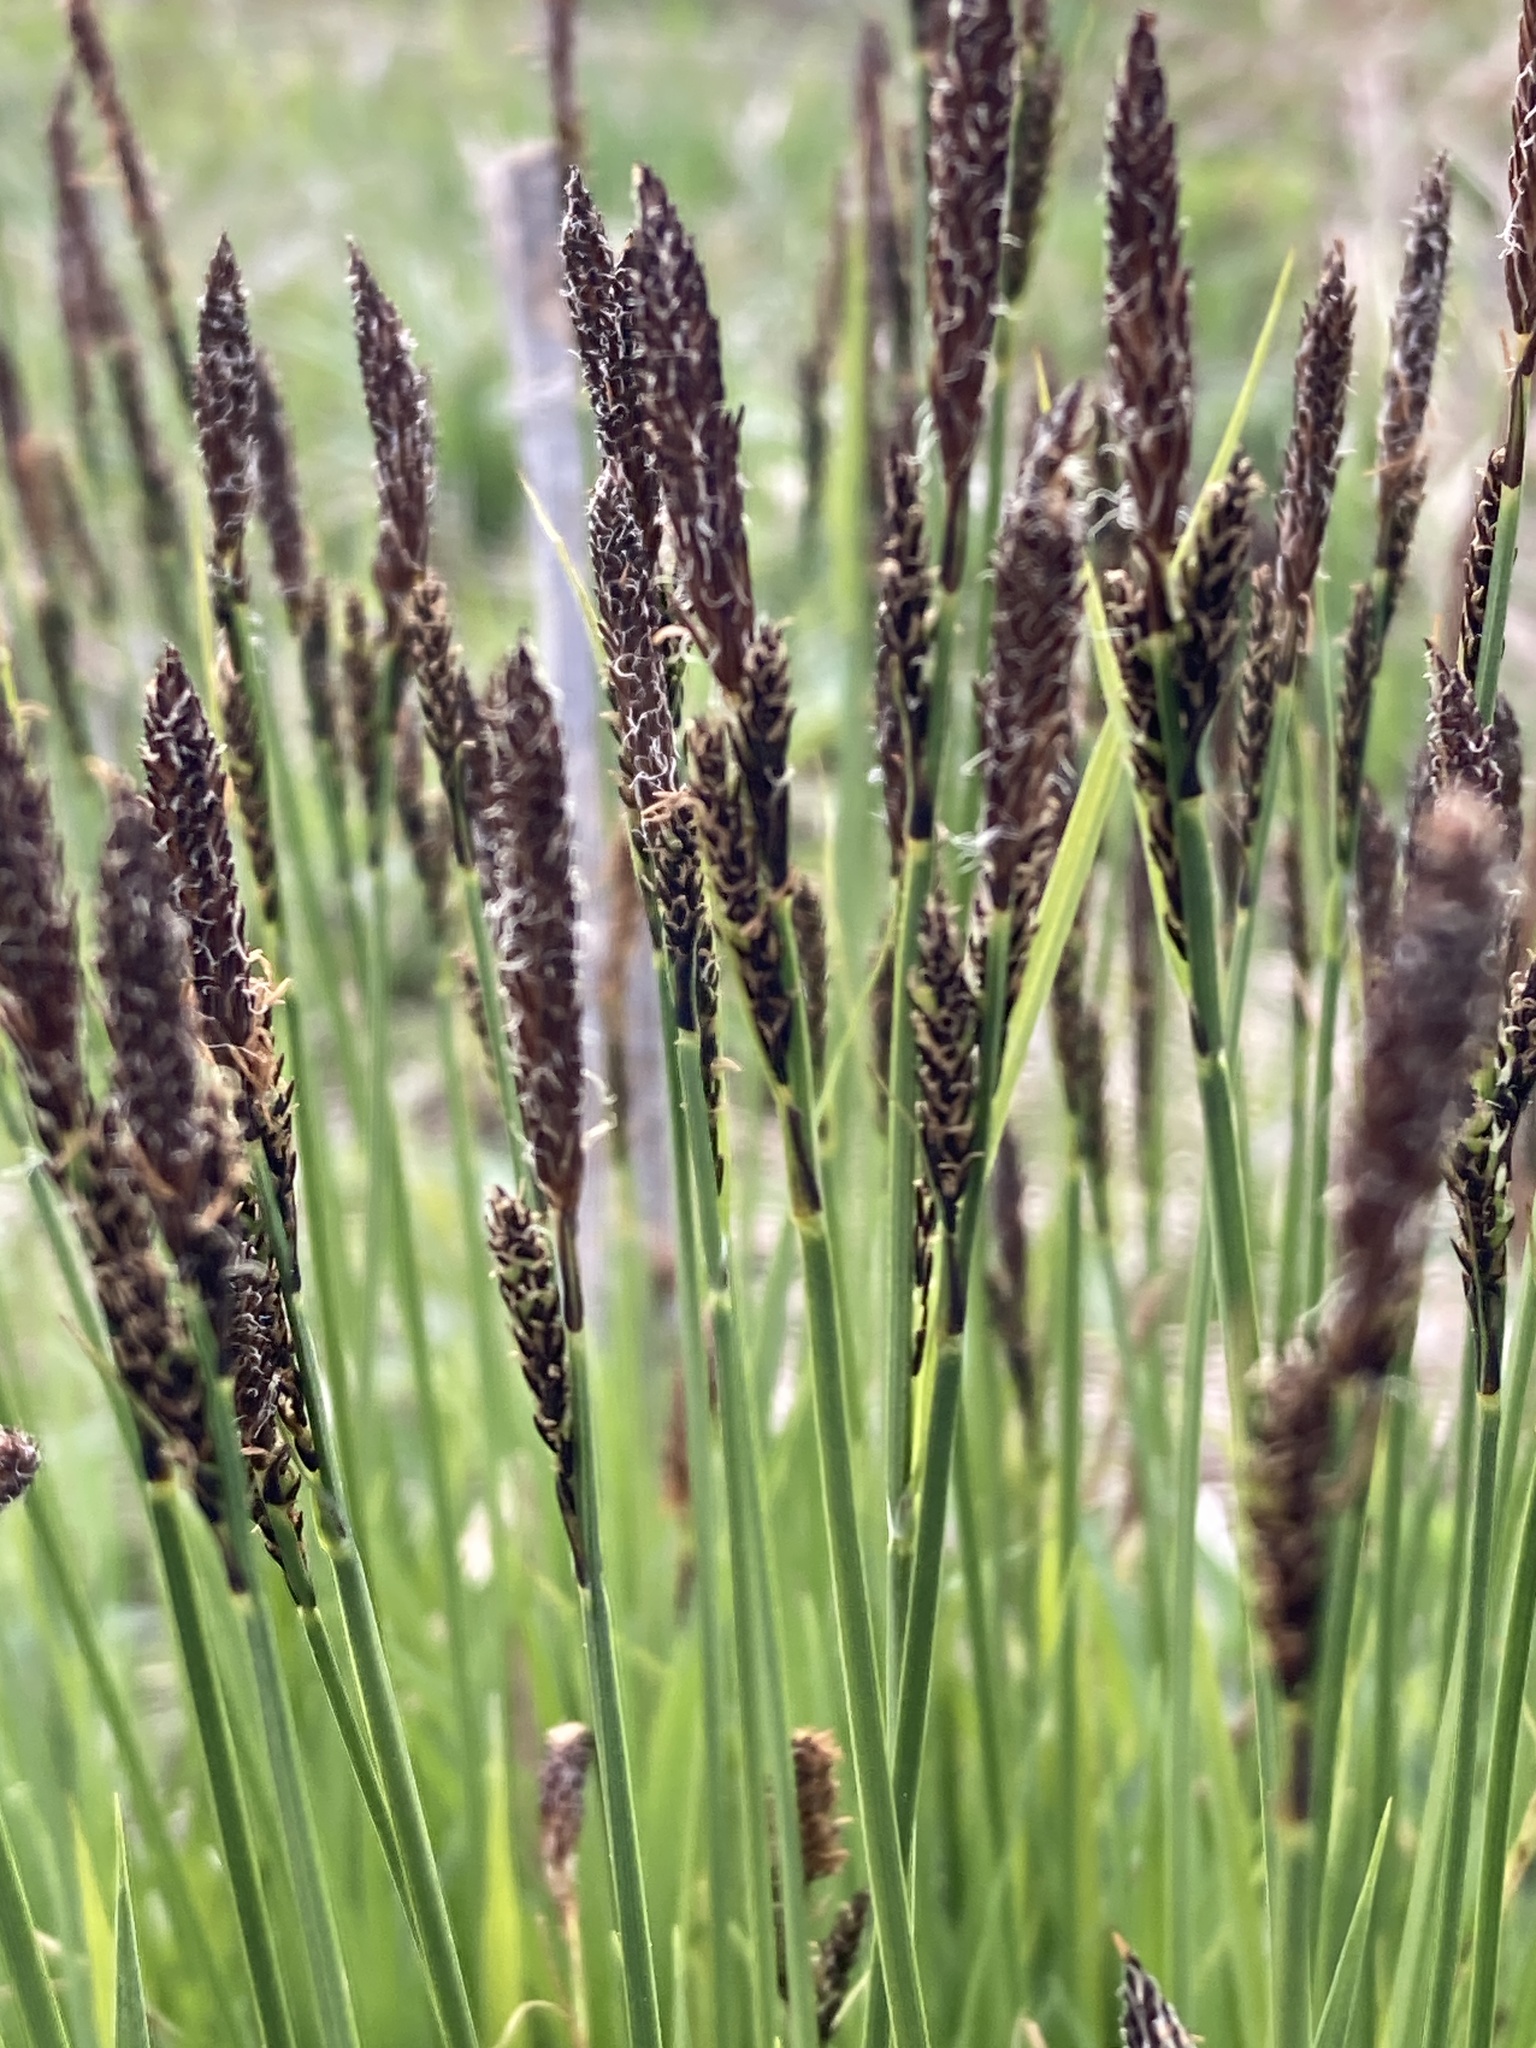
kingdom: Plantae
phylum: Tracheophyta
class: Liliopsida
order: Poales
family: Cyperaceae
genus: Carex
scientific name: Carex cespitosa
